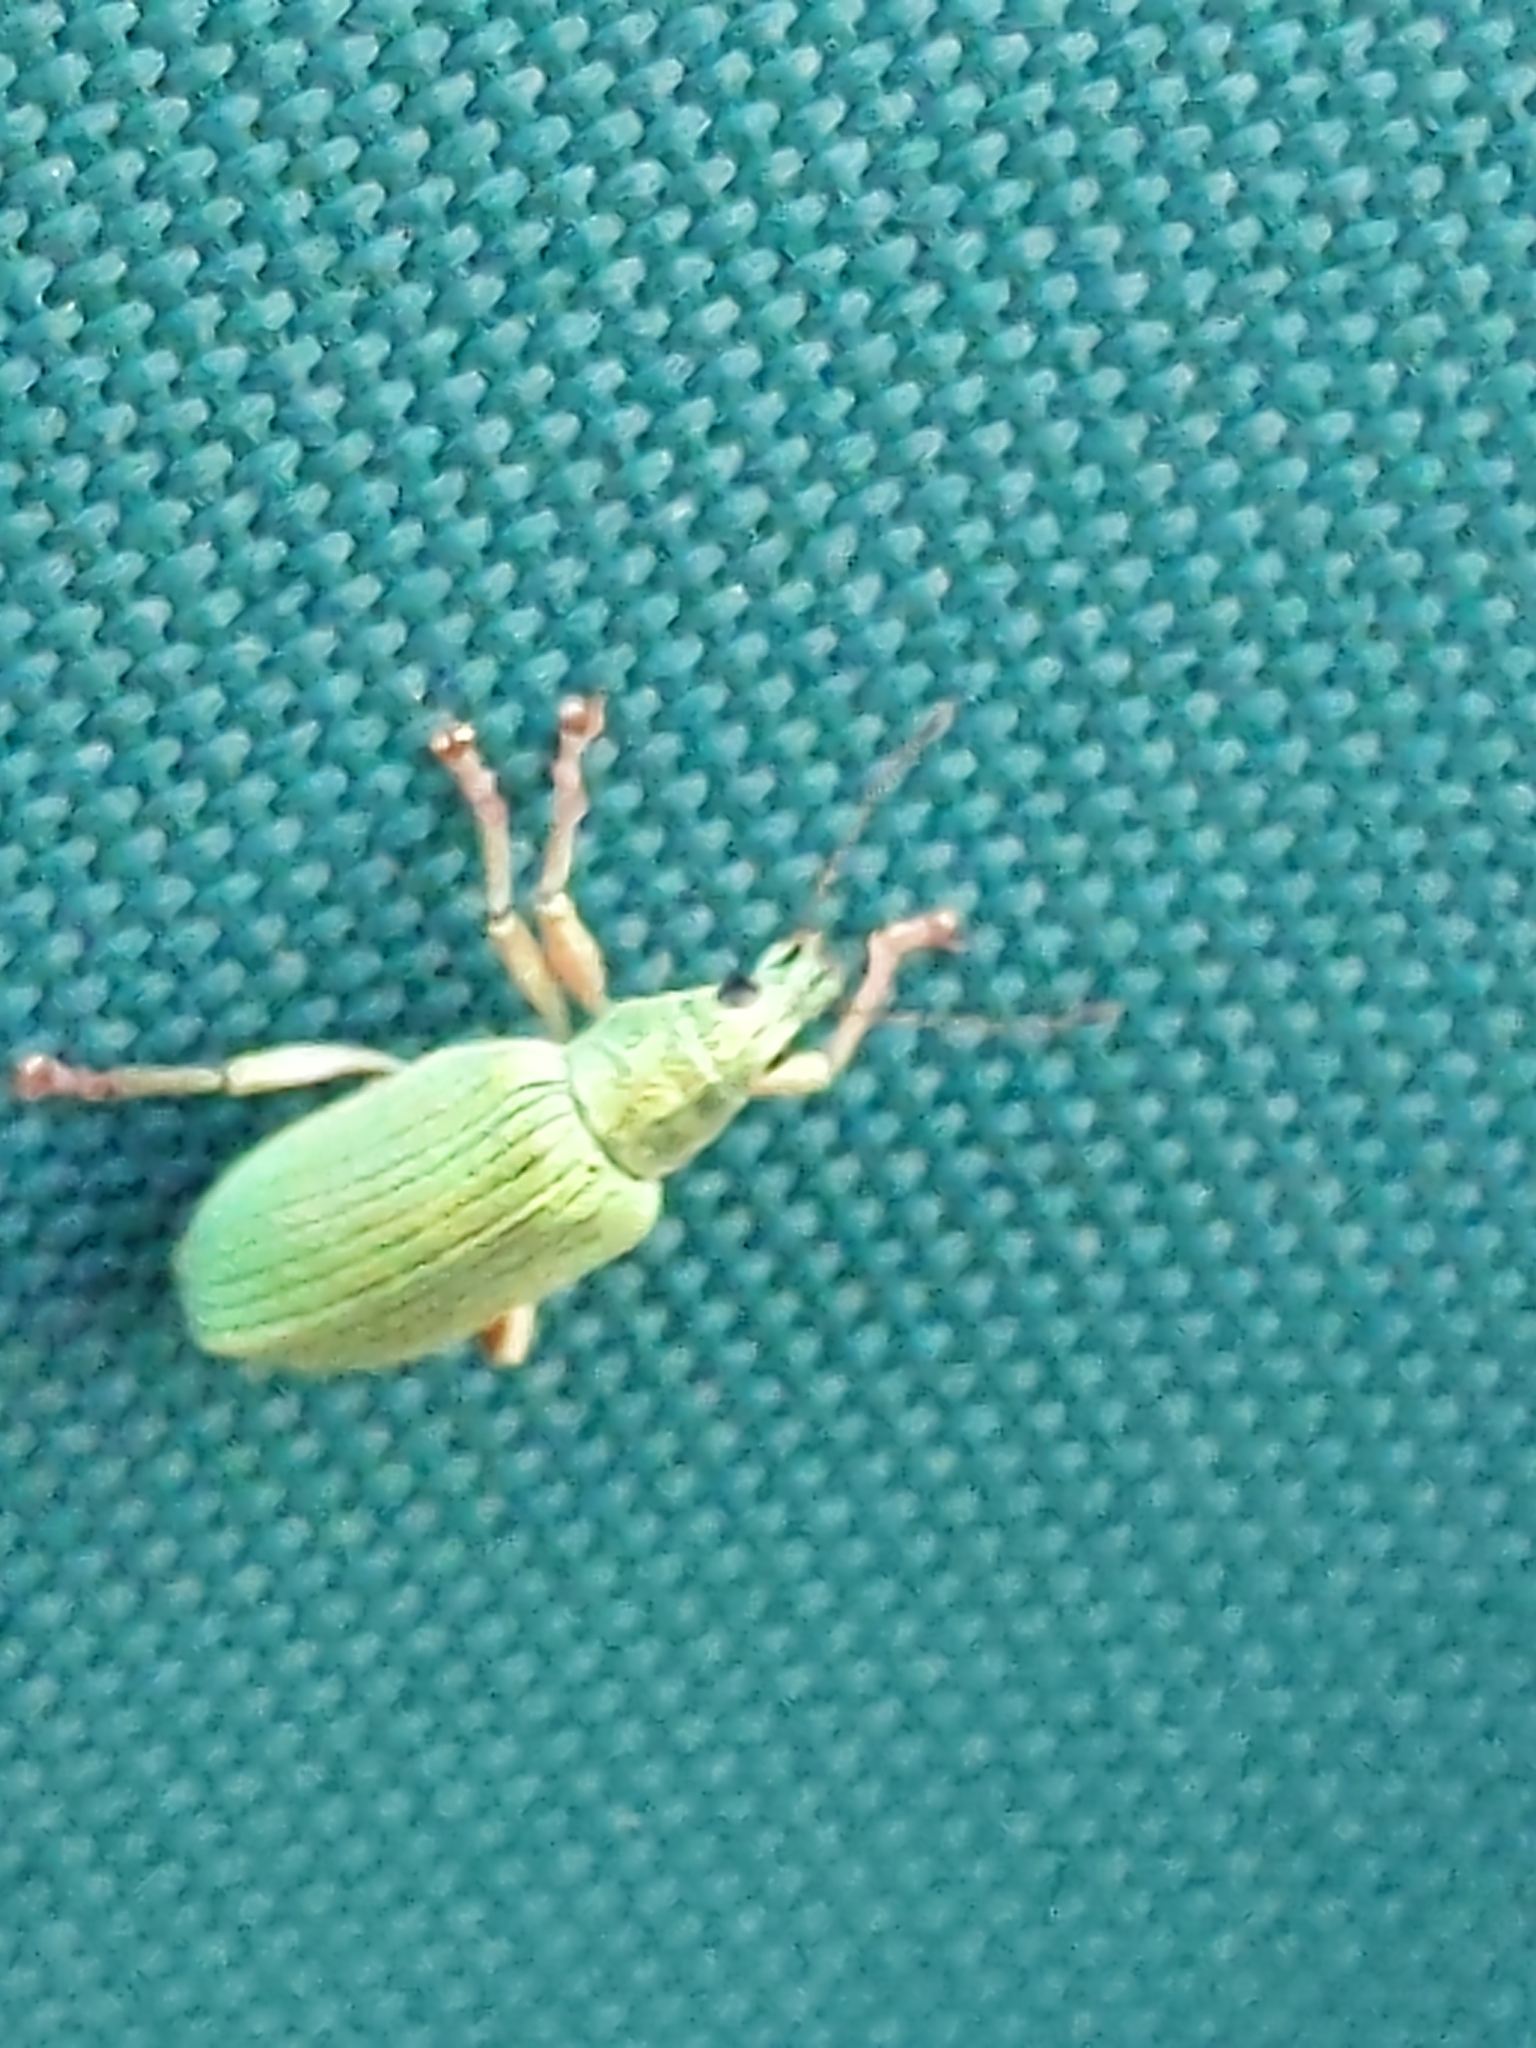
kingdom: Animalia
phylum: Arthropoda
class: Insecta
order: Coleoptera
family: Curculionidae
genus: Polydrusus
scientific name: Polydrusus formosus
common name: Weevil
